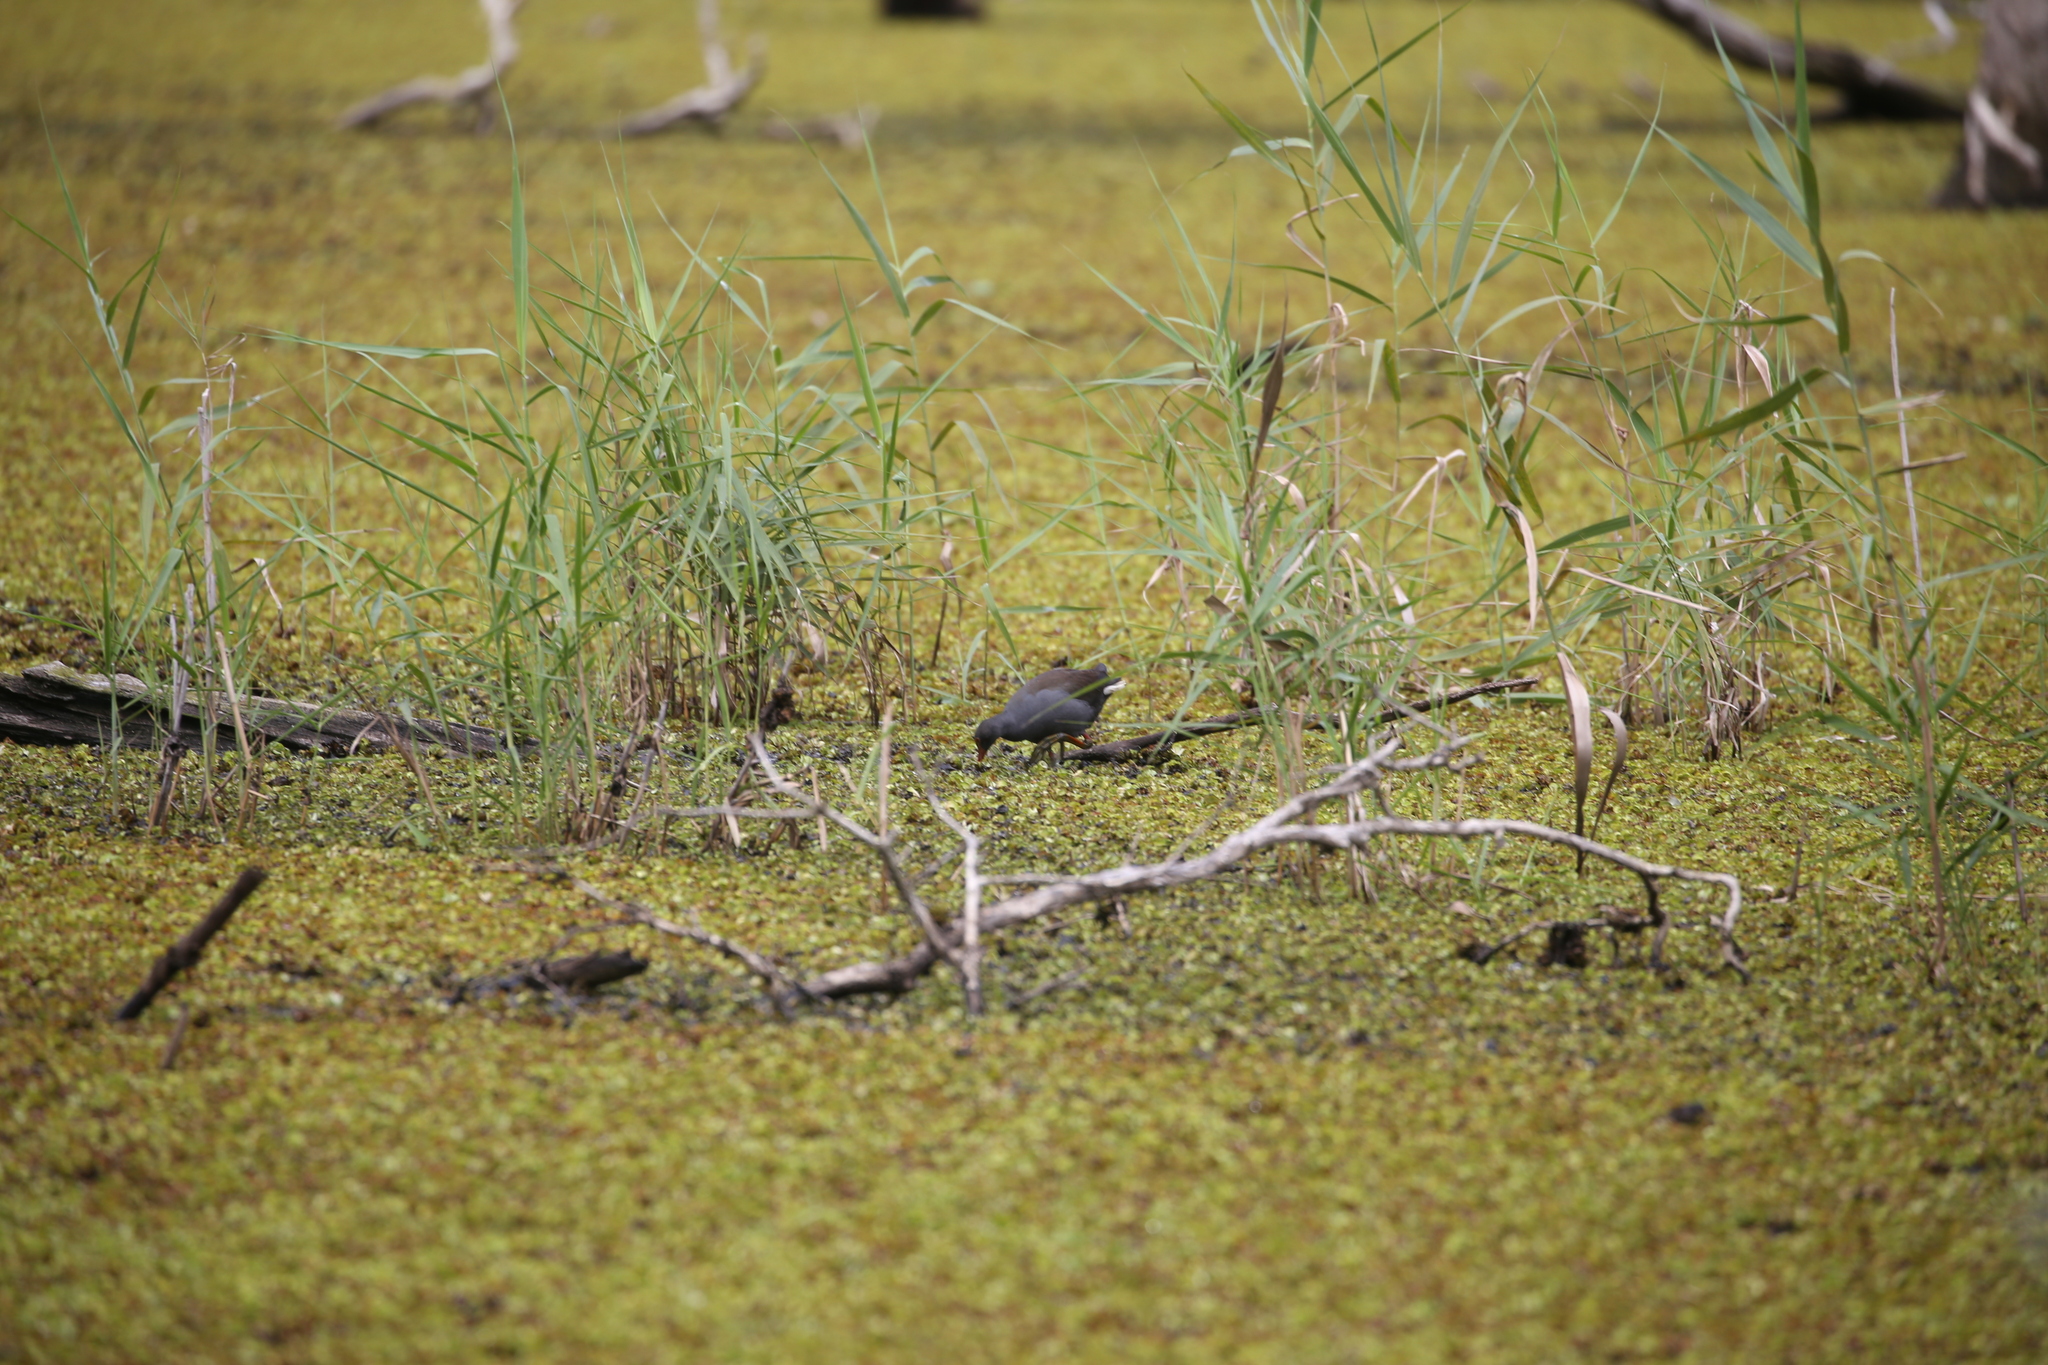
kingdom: Animalia
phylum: Chordata
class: Aves
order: Gruiformes
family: Rallidae
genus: Gallinula
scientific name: Gallinula tenebrosa
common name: Dusky moorhen
